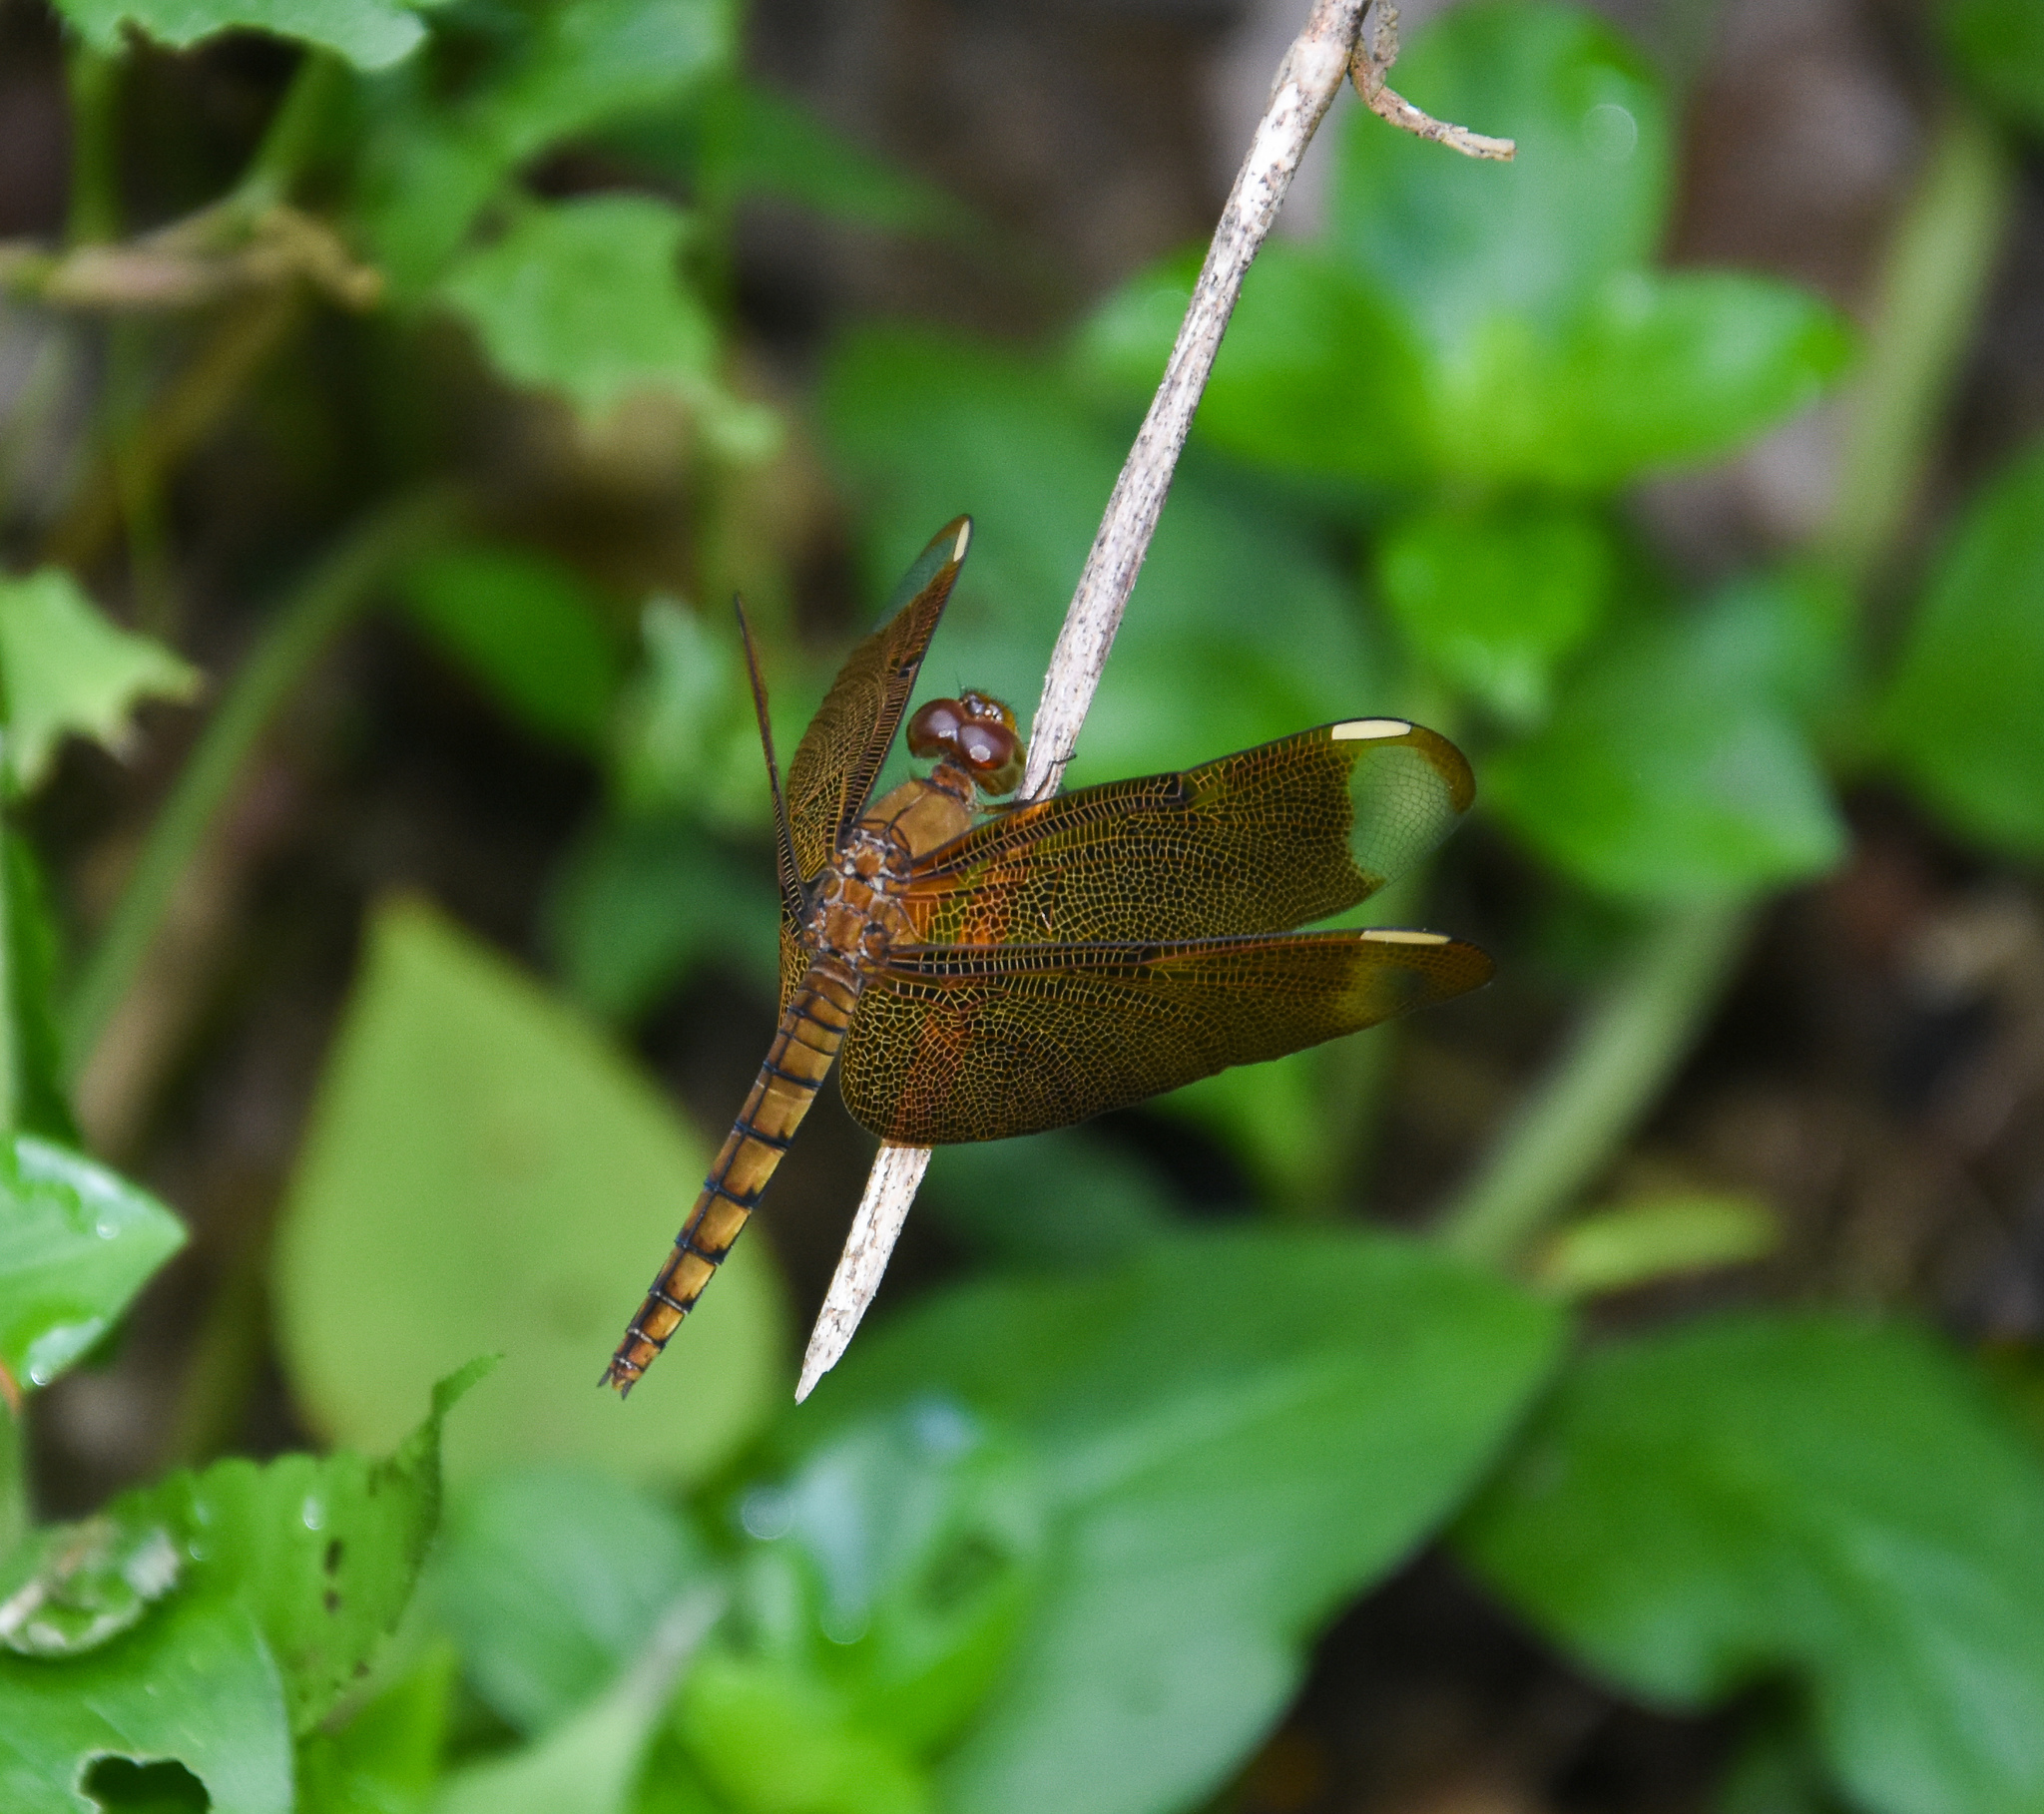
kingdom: Animalia
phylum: Arthropoda
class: Insecta
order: Odonata
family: Libellulidae
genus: Neurothemis
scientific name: Neurothemis fulvia
